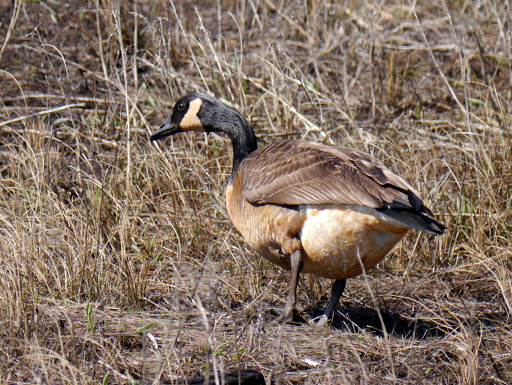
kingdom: Animalia
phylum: Chordata
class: Aves
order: Anseriformes
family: Anatidae
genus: Branta
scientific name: Branta canadensis
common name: Canada goose
